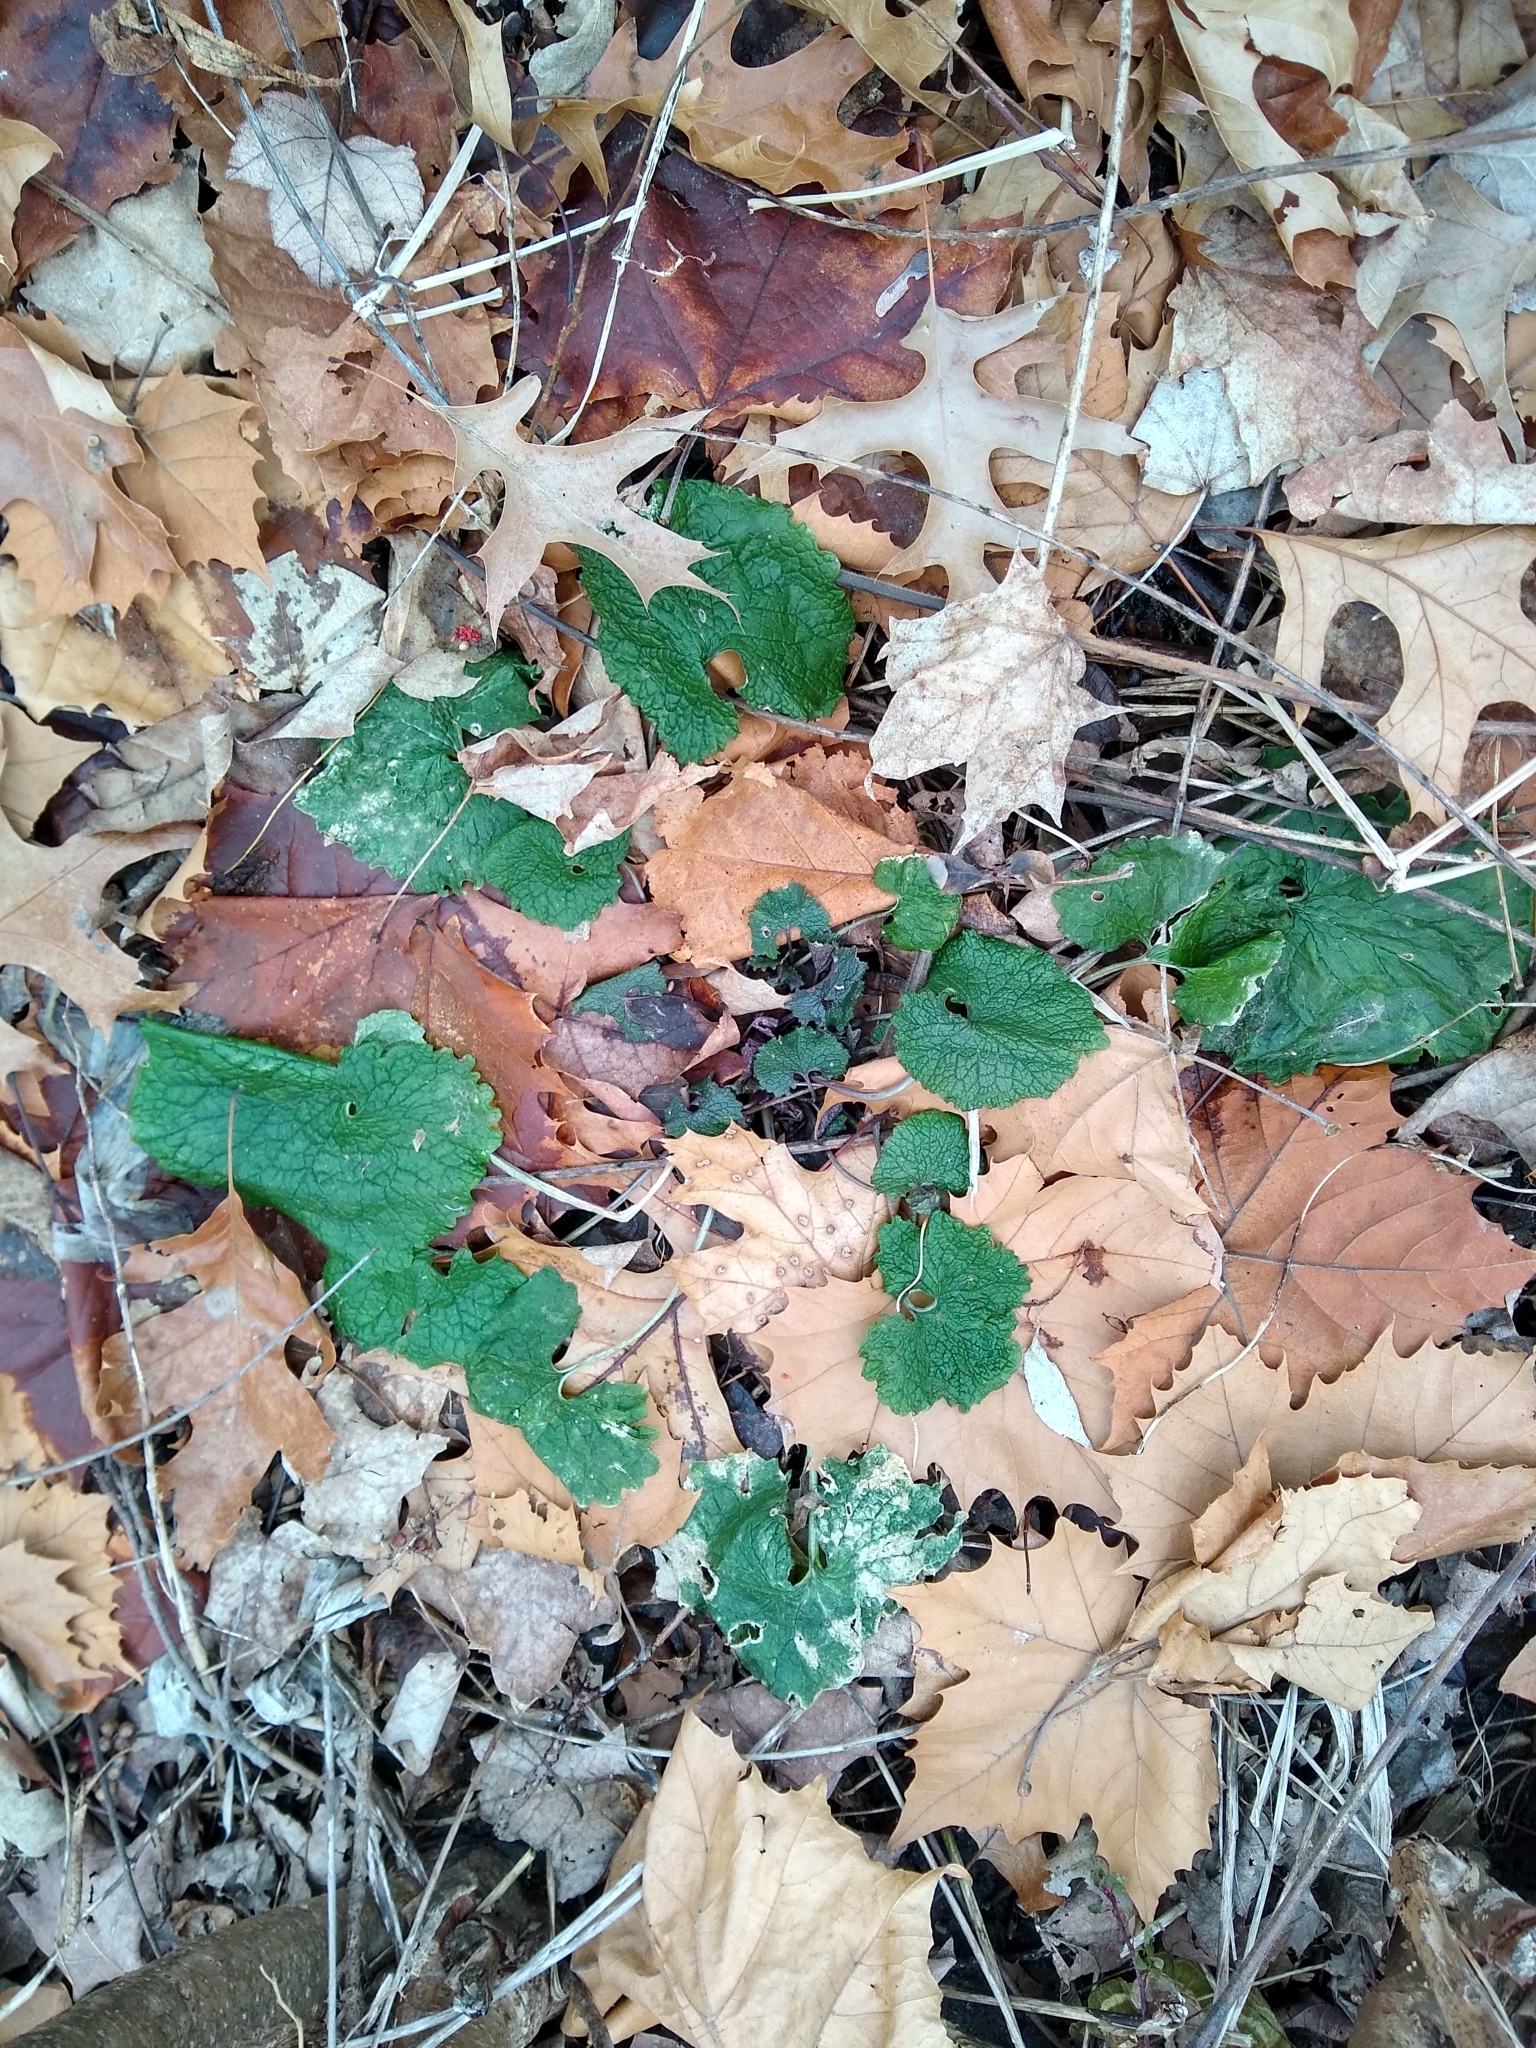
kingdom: Plantae
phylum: Tracheophyta
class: Magnoliopsida
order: Brassicales
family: Brassicaceae
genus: Alliaria
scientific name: Alliaria petiolata
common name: Garlic mustard
